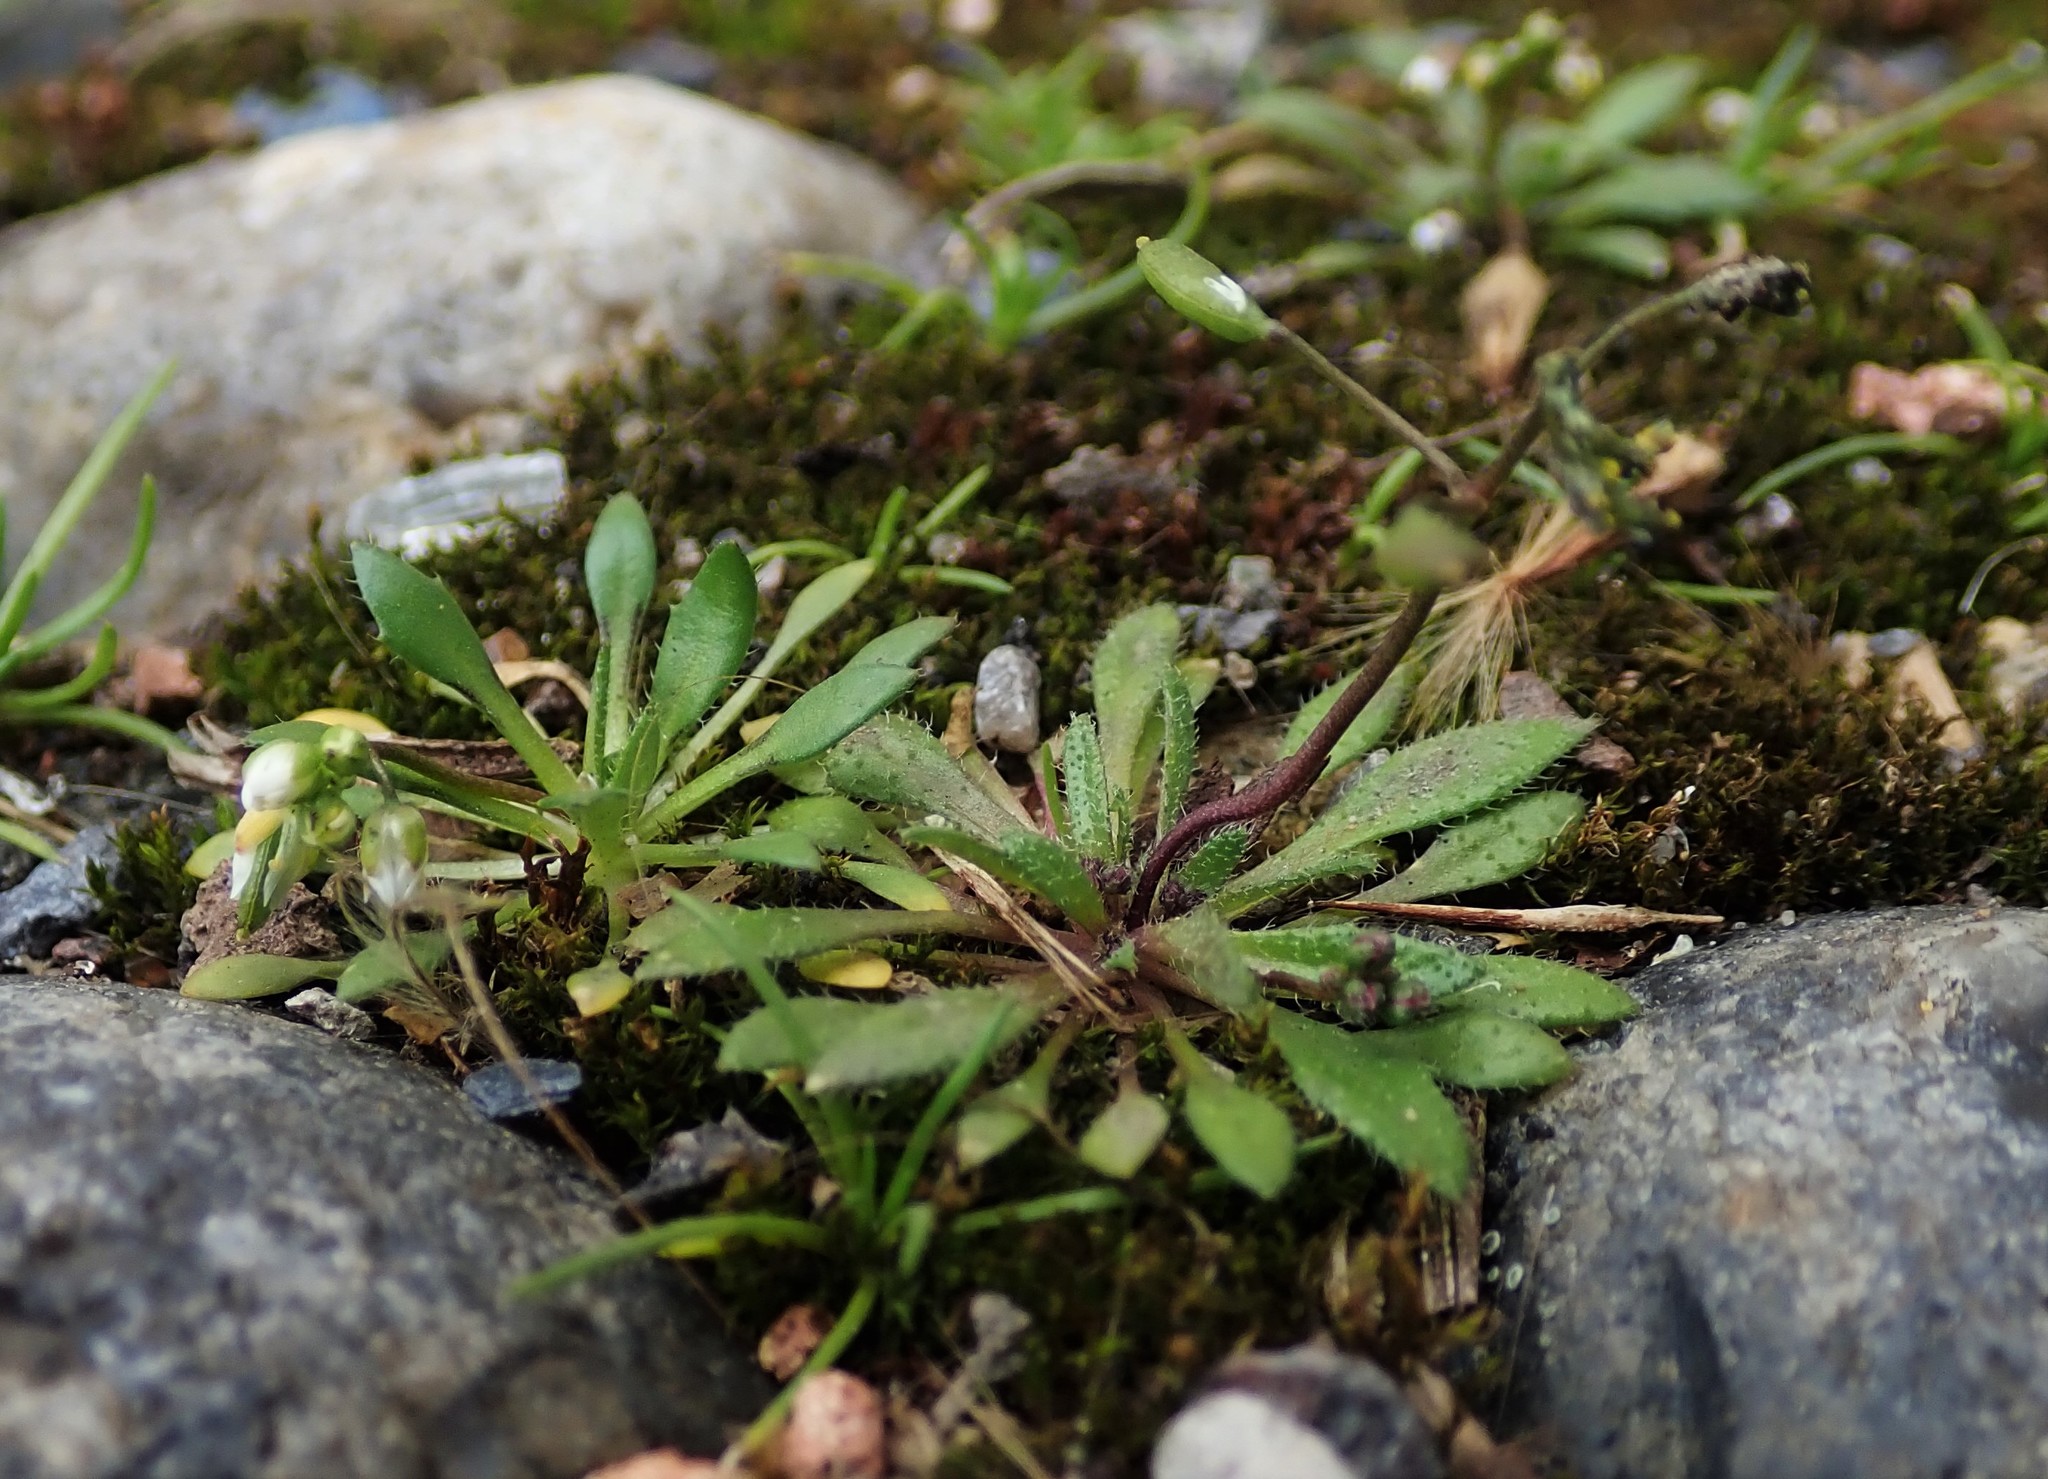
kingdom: Plantae
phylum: Tracheophyta
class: Magnoliopsida
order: Brassicales
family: Brassicaceae
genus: Draba
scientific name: Draba verna
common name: Spring draba
